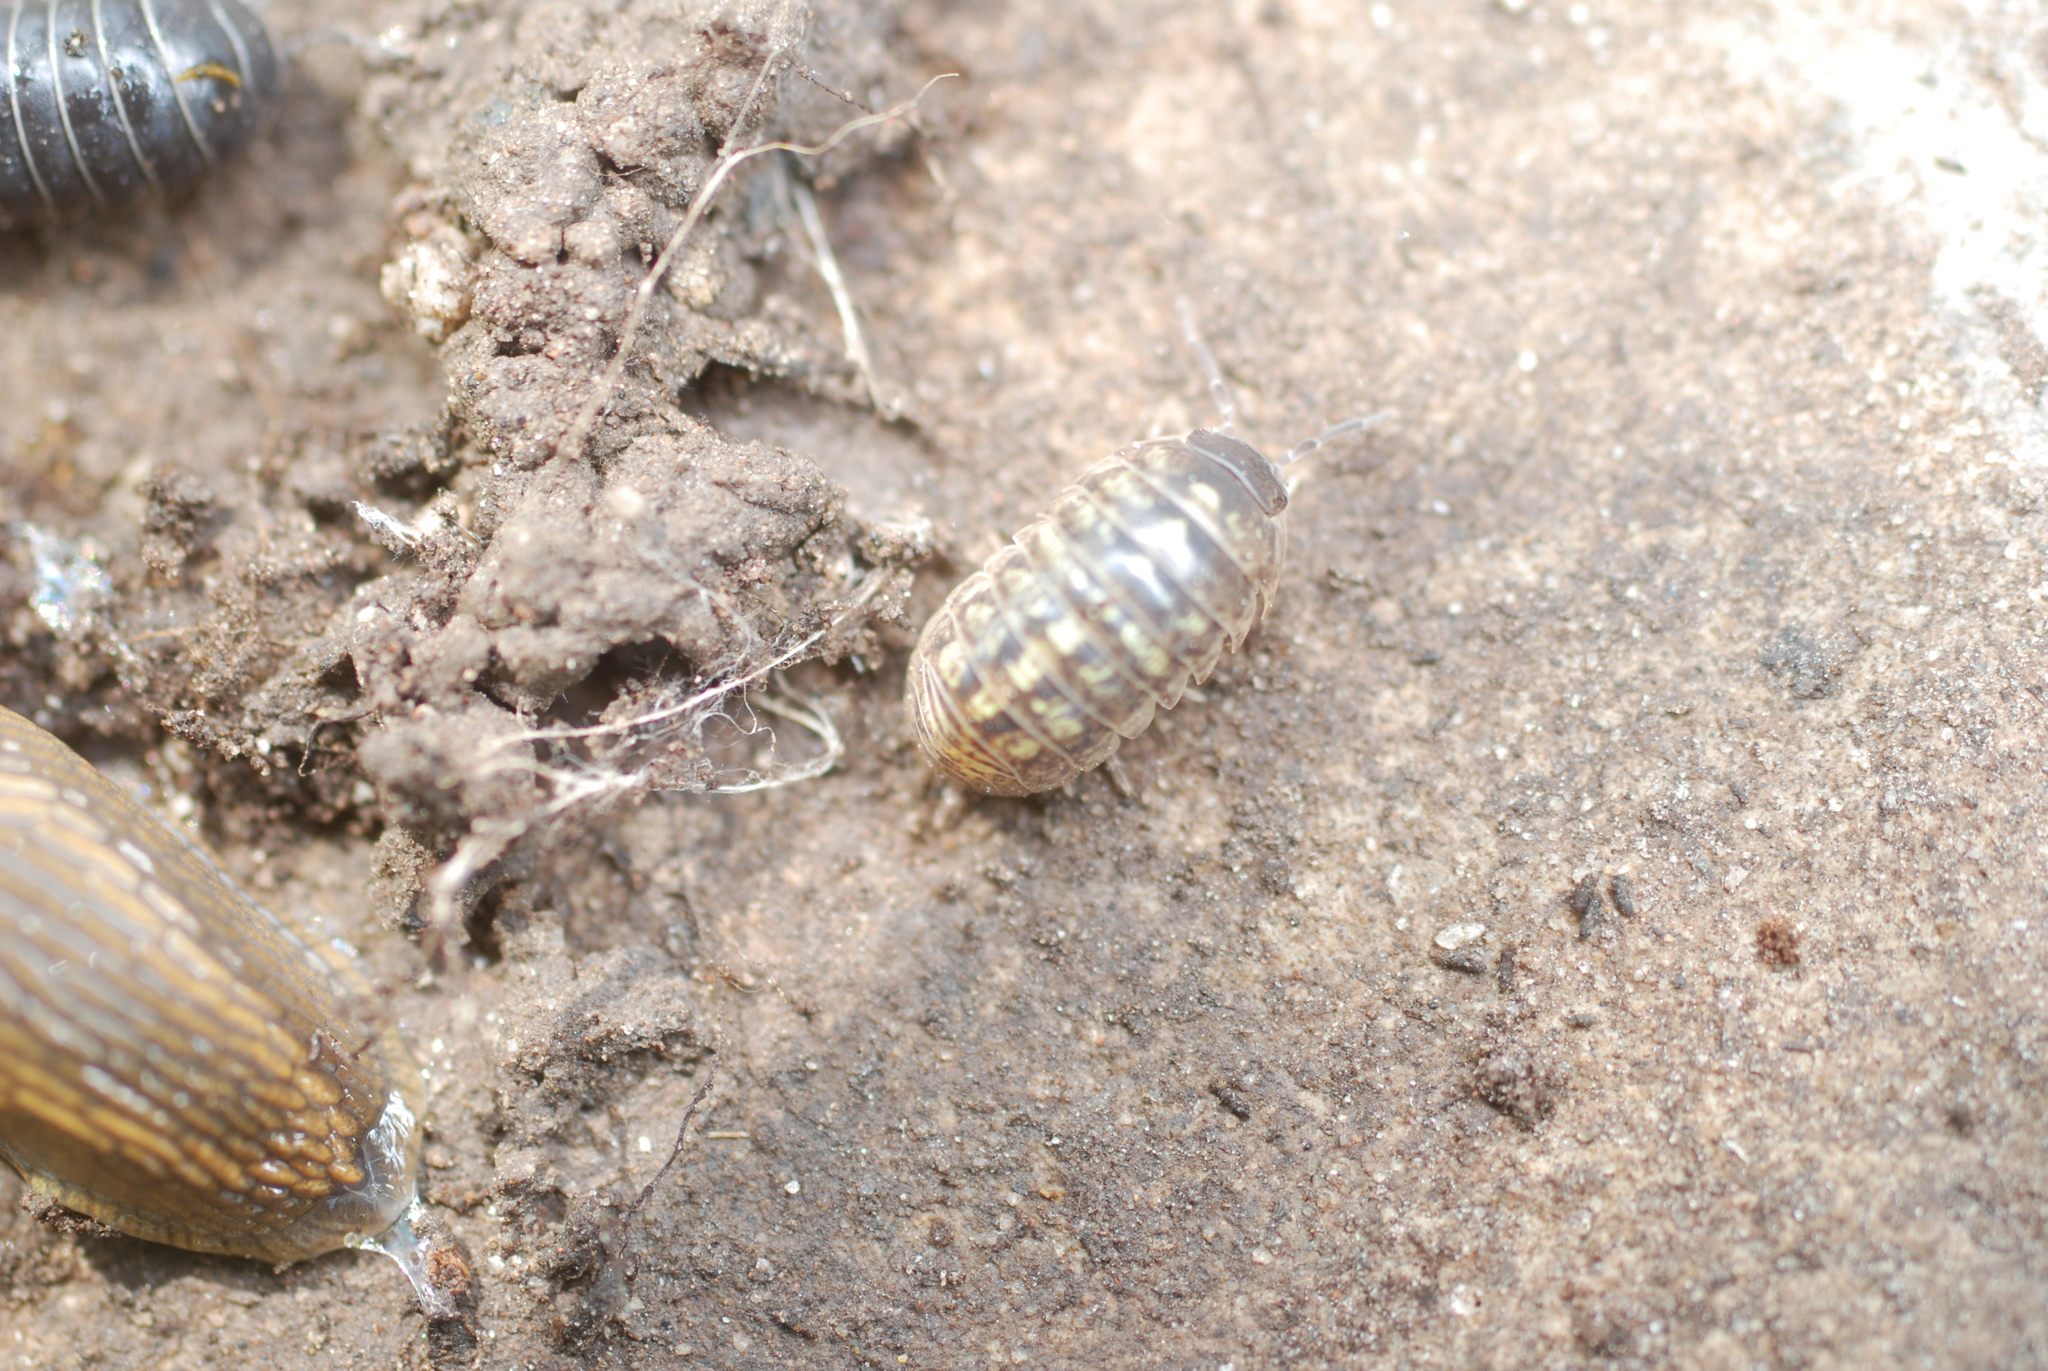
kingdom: Animalia
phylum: Arthropoda
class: Malacostraca
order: Isopoda
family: Armadillidiidae
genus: Armadillidium
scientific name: Armadillidium vulgare
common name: Common pill woodlouse
